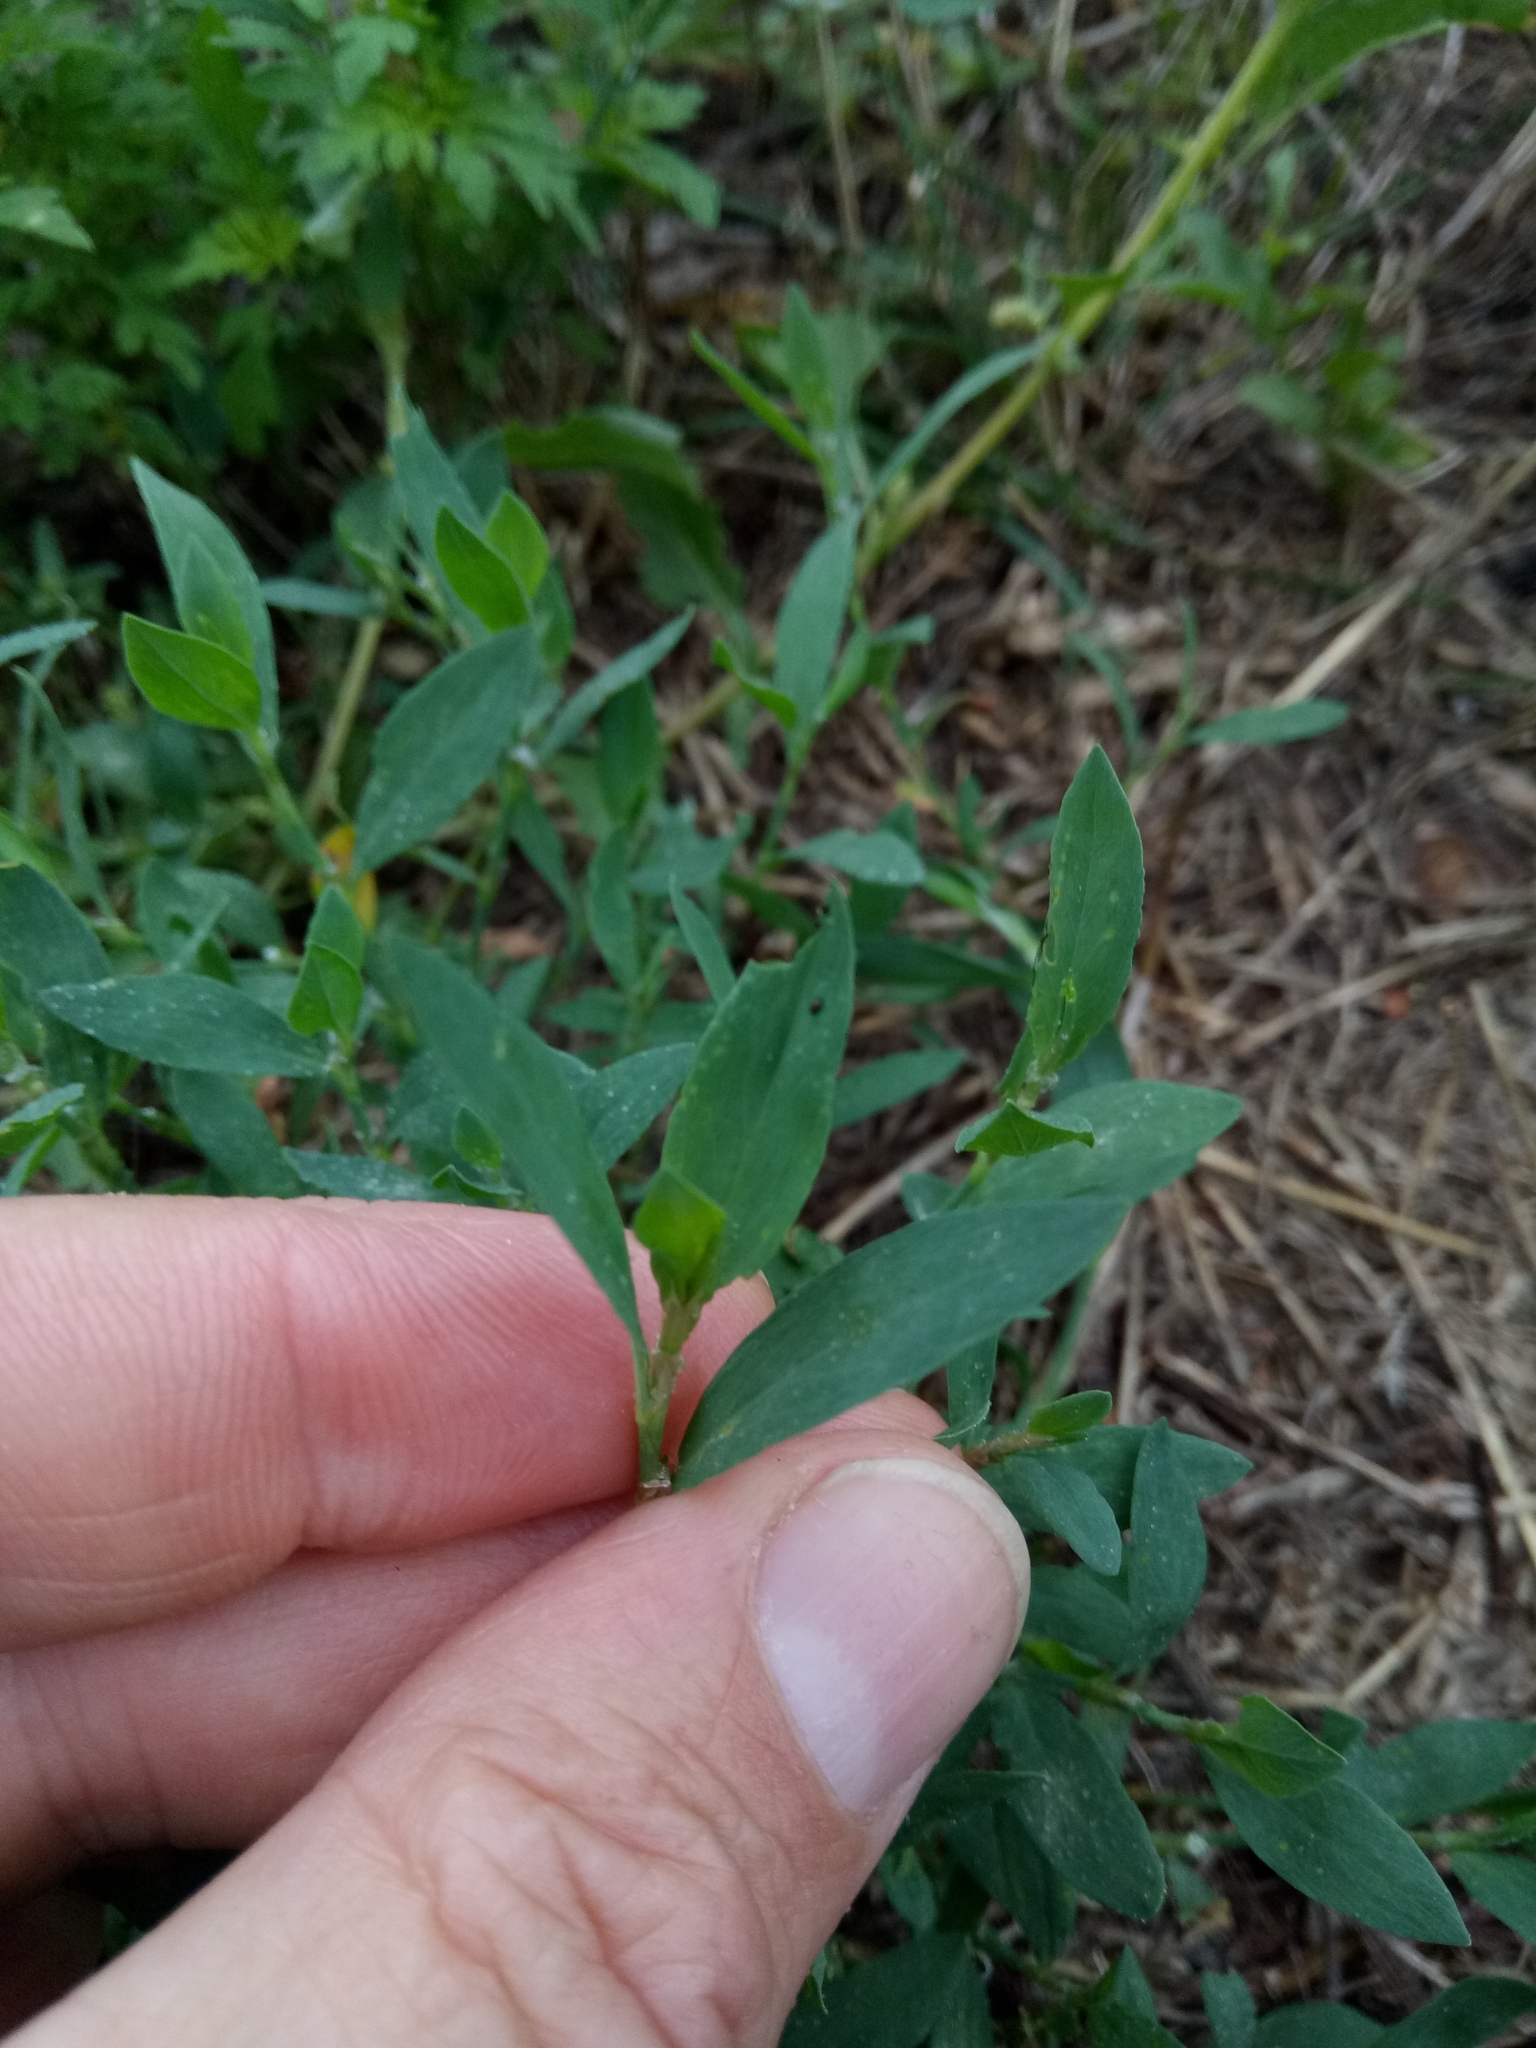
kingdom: Plantae
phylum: Tracheophyta
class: Magnoliopsida
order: Caryophyllales
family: Polygonaceae
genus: Polygonum
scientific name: Polygonum aviculare
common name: Prostrate knotweed
